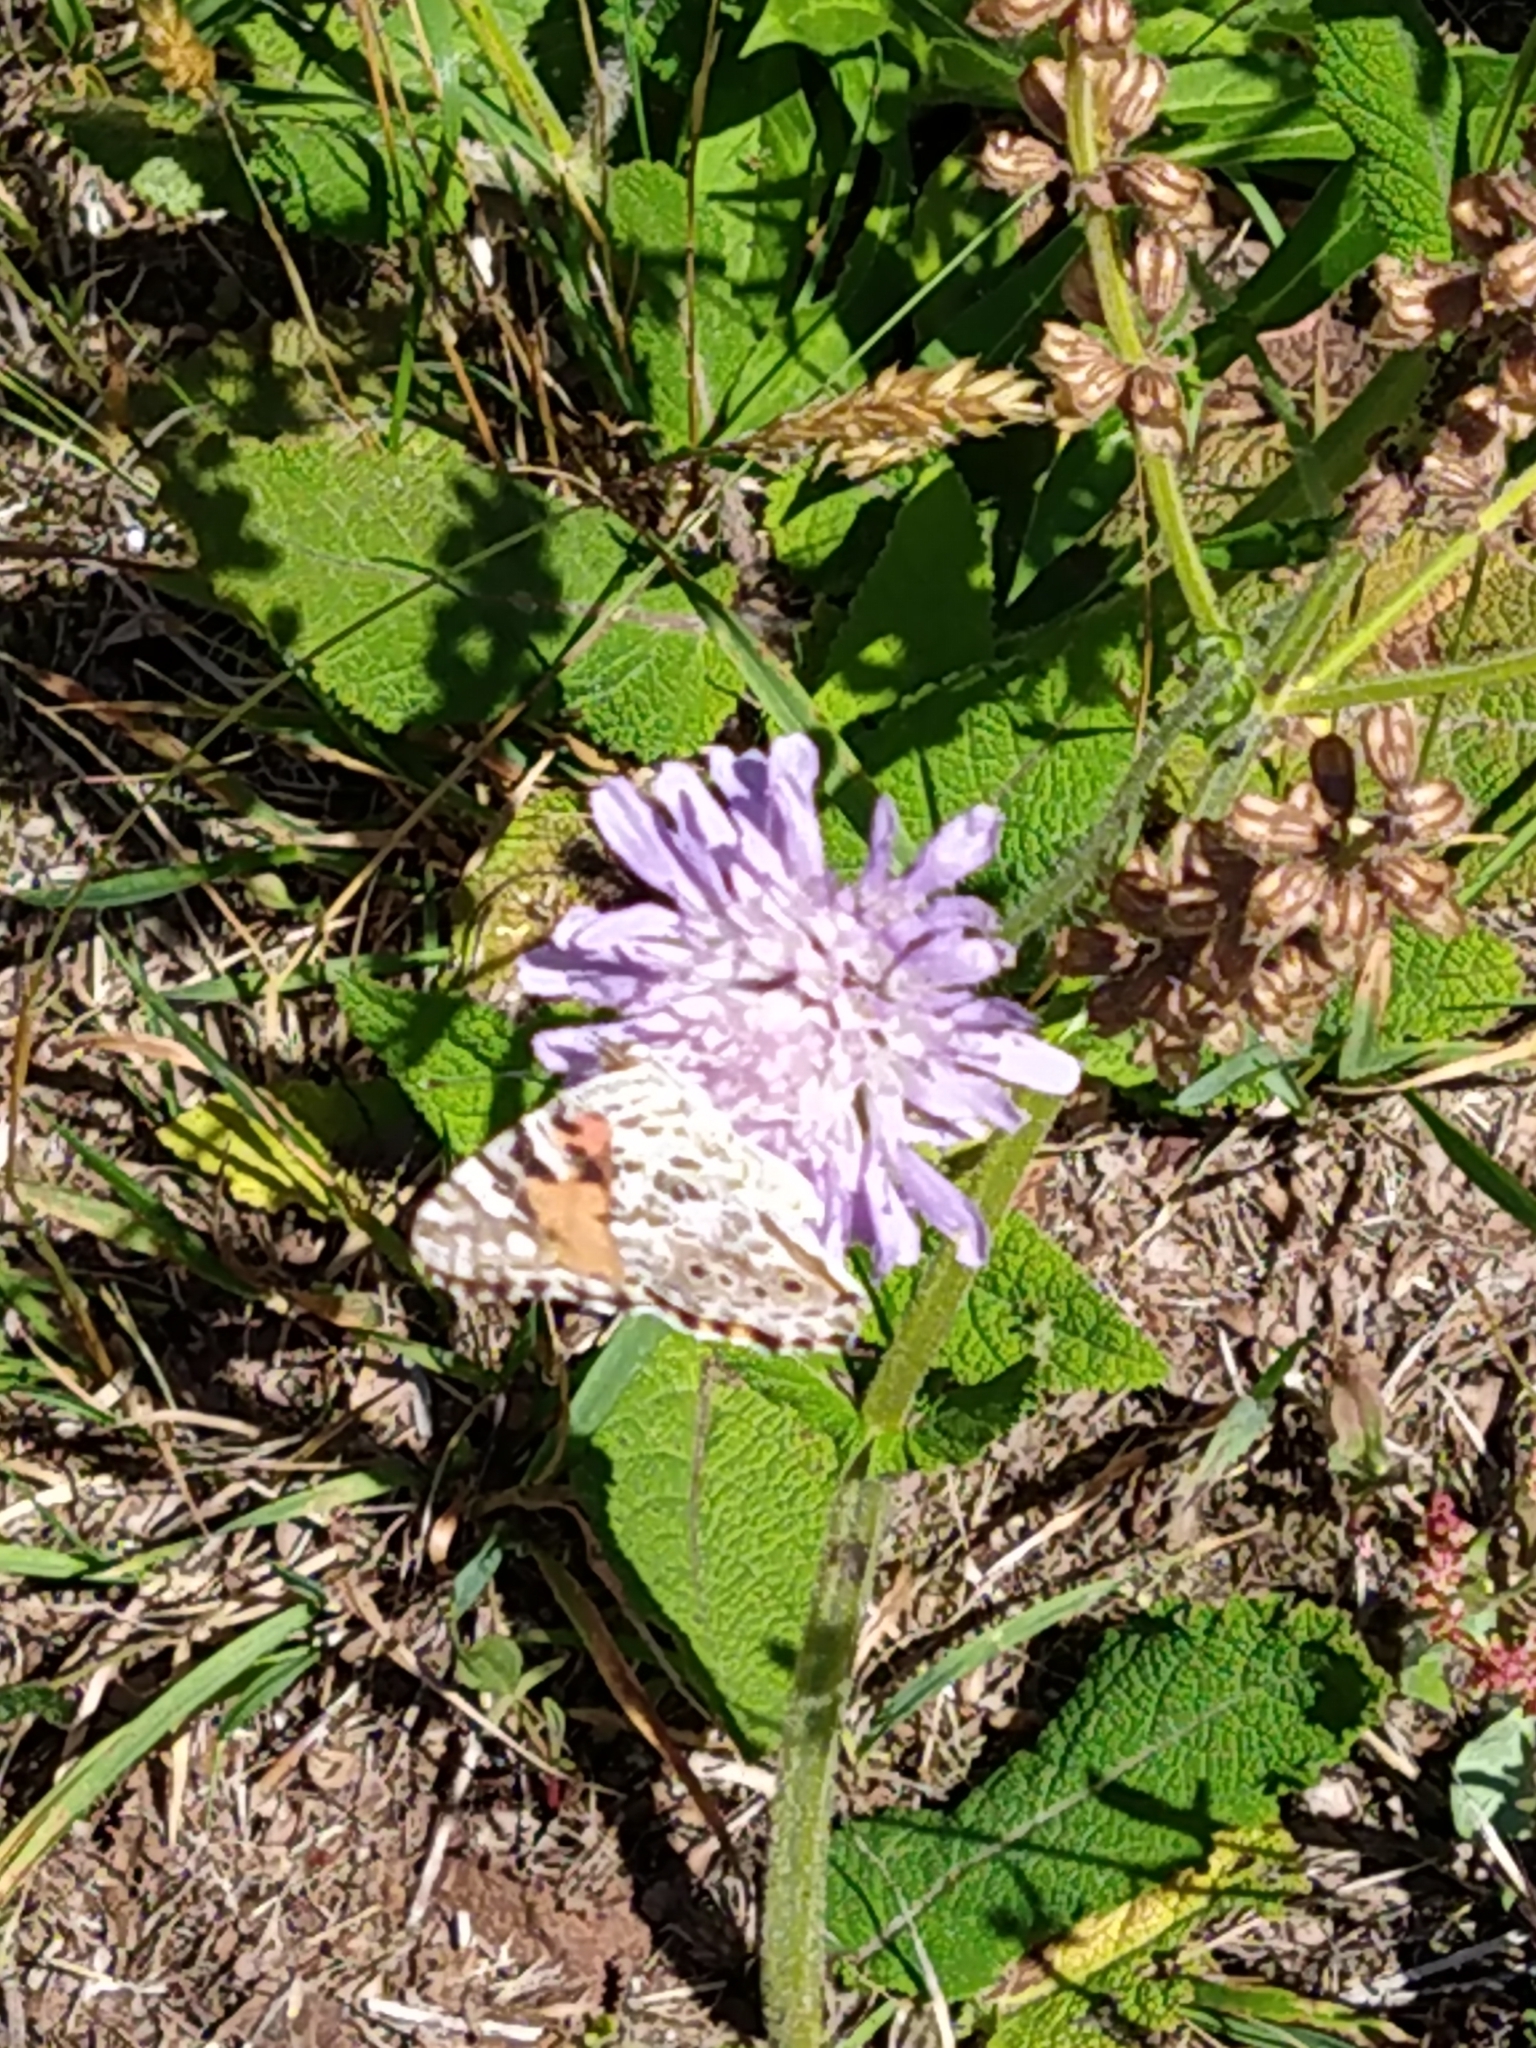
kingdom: Animalia
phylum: Arthropoda
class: Insecta
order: Lepidoptera
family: Nymphalidae
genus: Vanessa
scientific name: Vanessa cardui
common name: Painted lady
